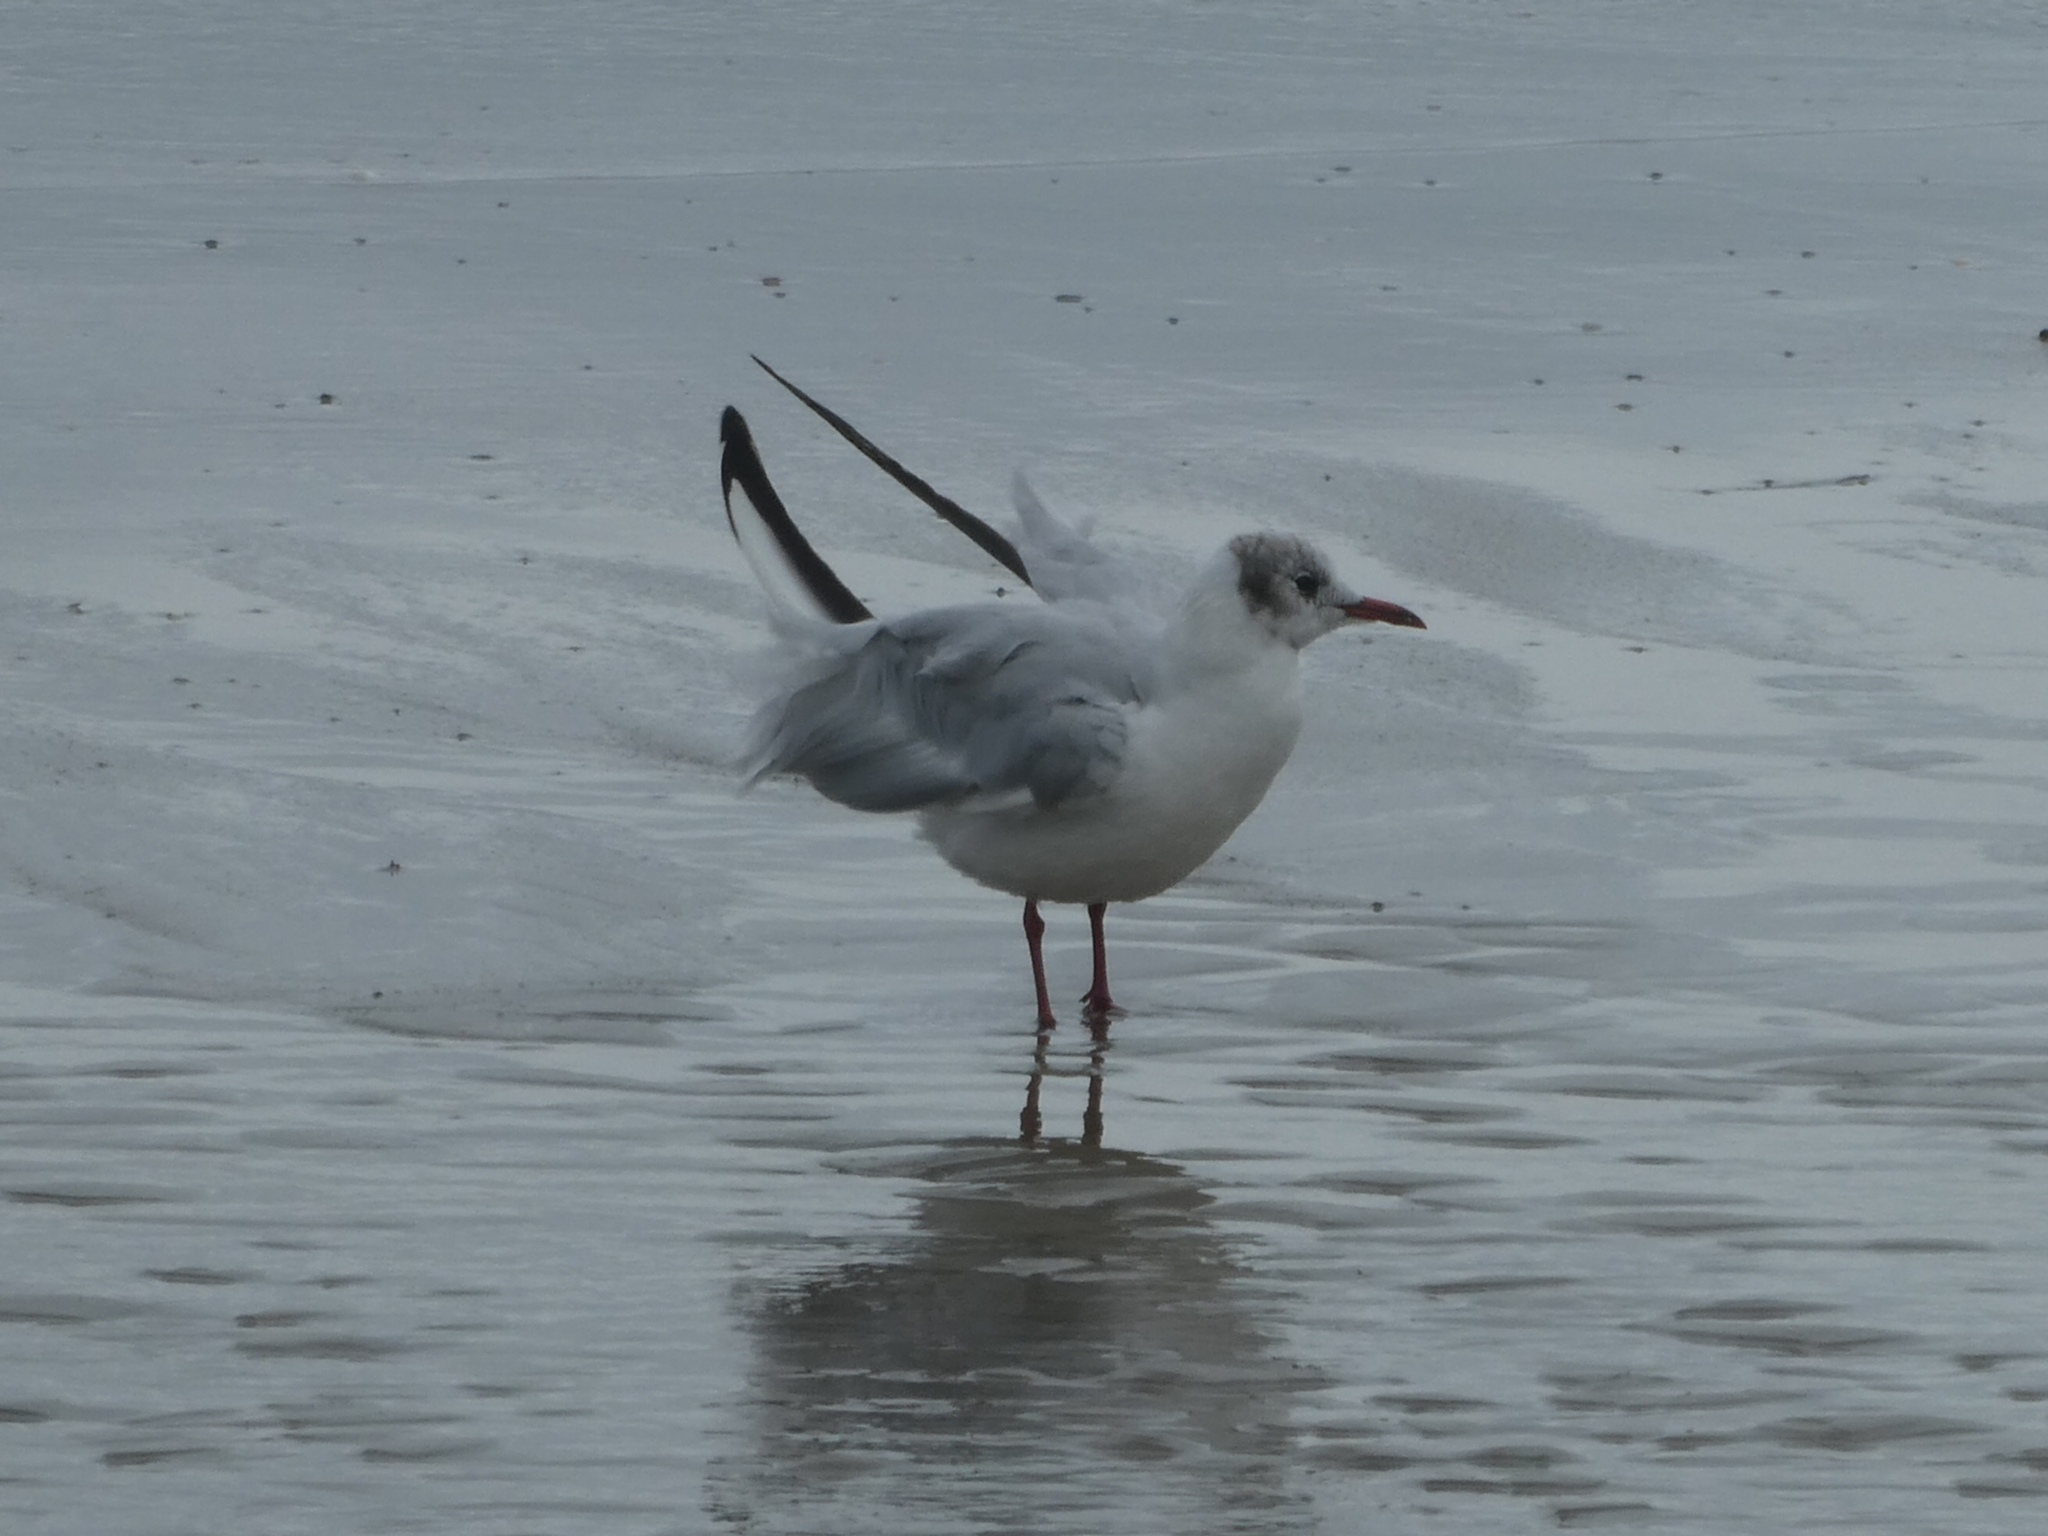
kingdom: Animalia
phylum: Chordata
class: Aves
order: Charadriiformes
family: Laridae
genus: Chroicocephalus
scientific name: Chroicocephalus ridibundus
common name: Black-headed gull
